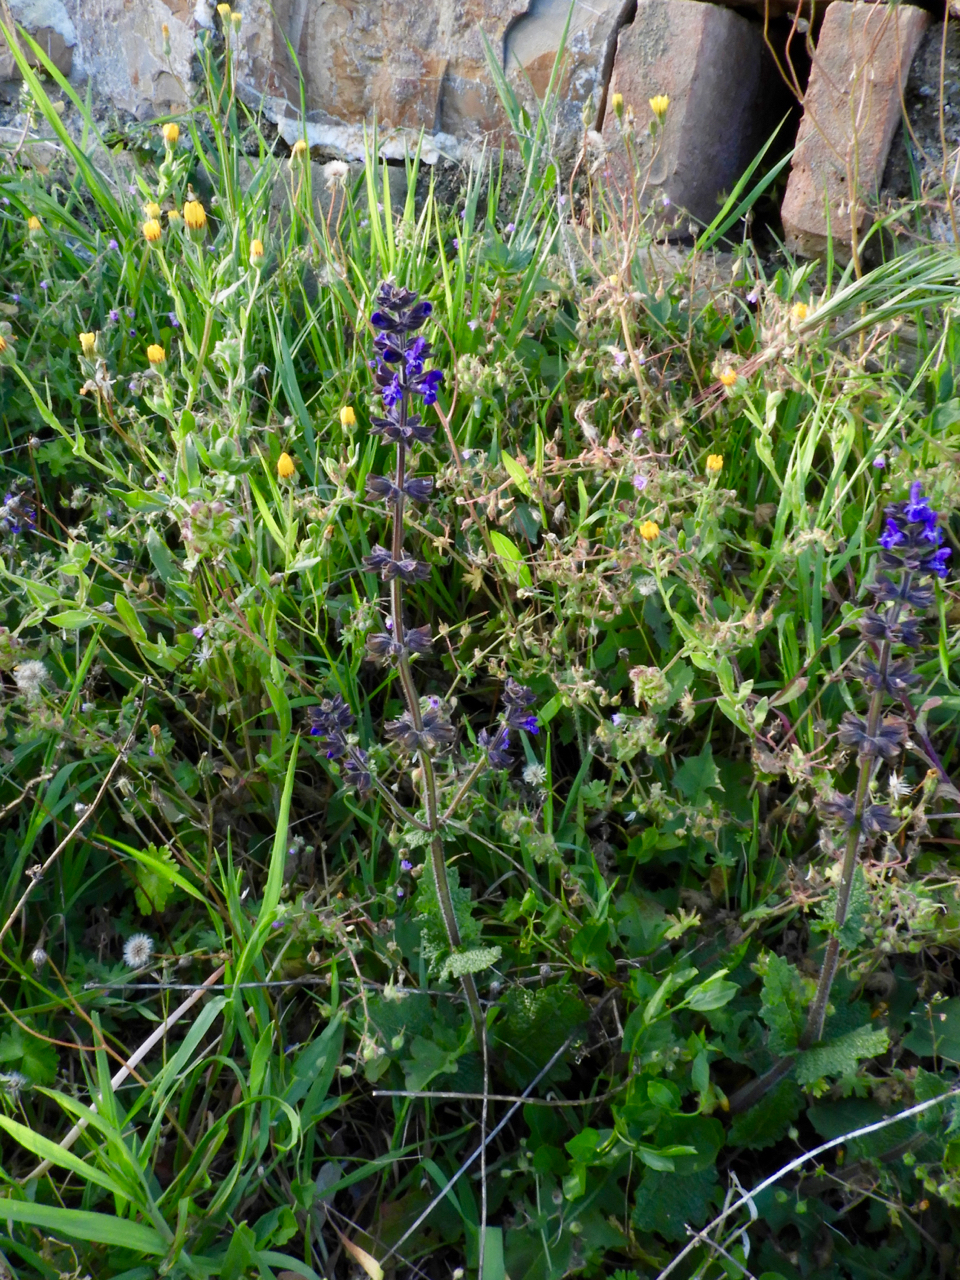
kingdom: Plantae
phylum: Tracheophyta
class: Magnoliopsida
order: Lamiales
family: Lamiaceae
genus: Salvia
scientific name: Salvia verbenaca
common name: Wild clary
